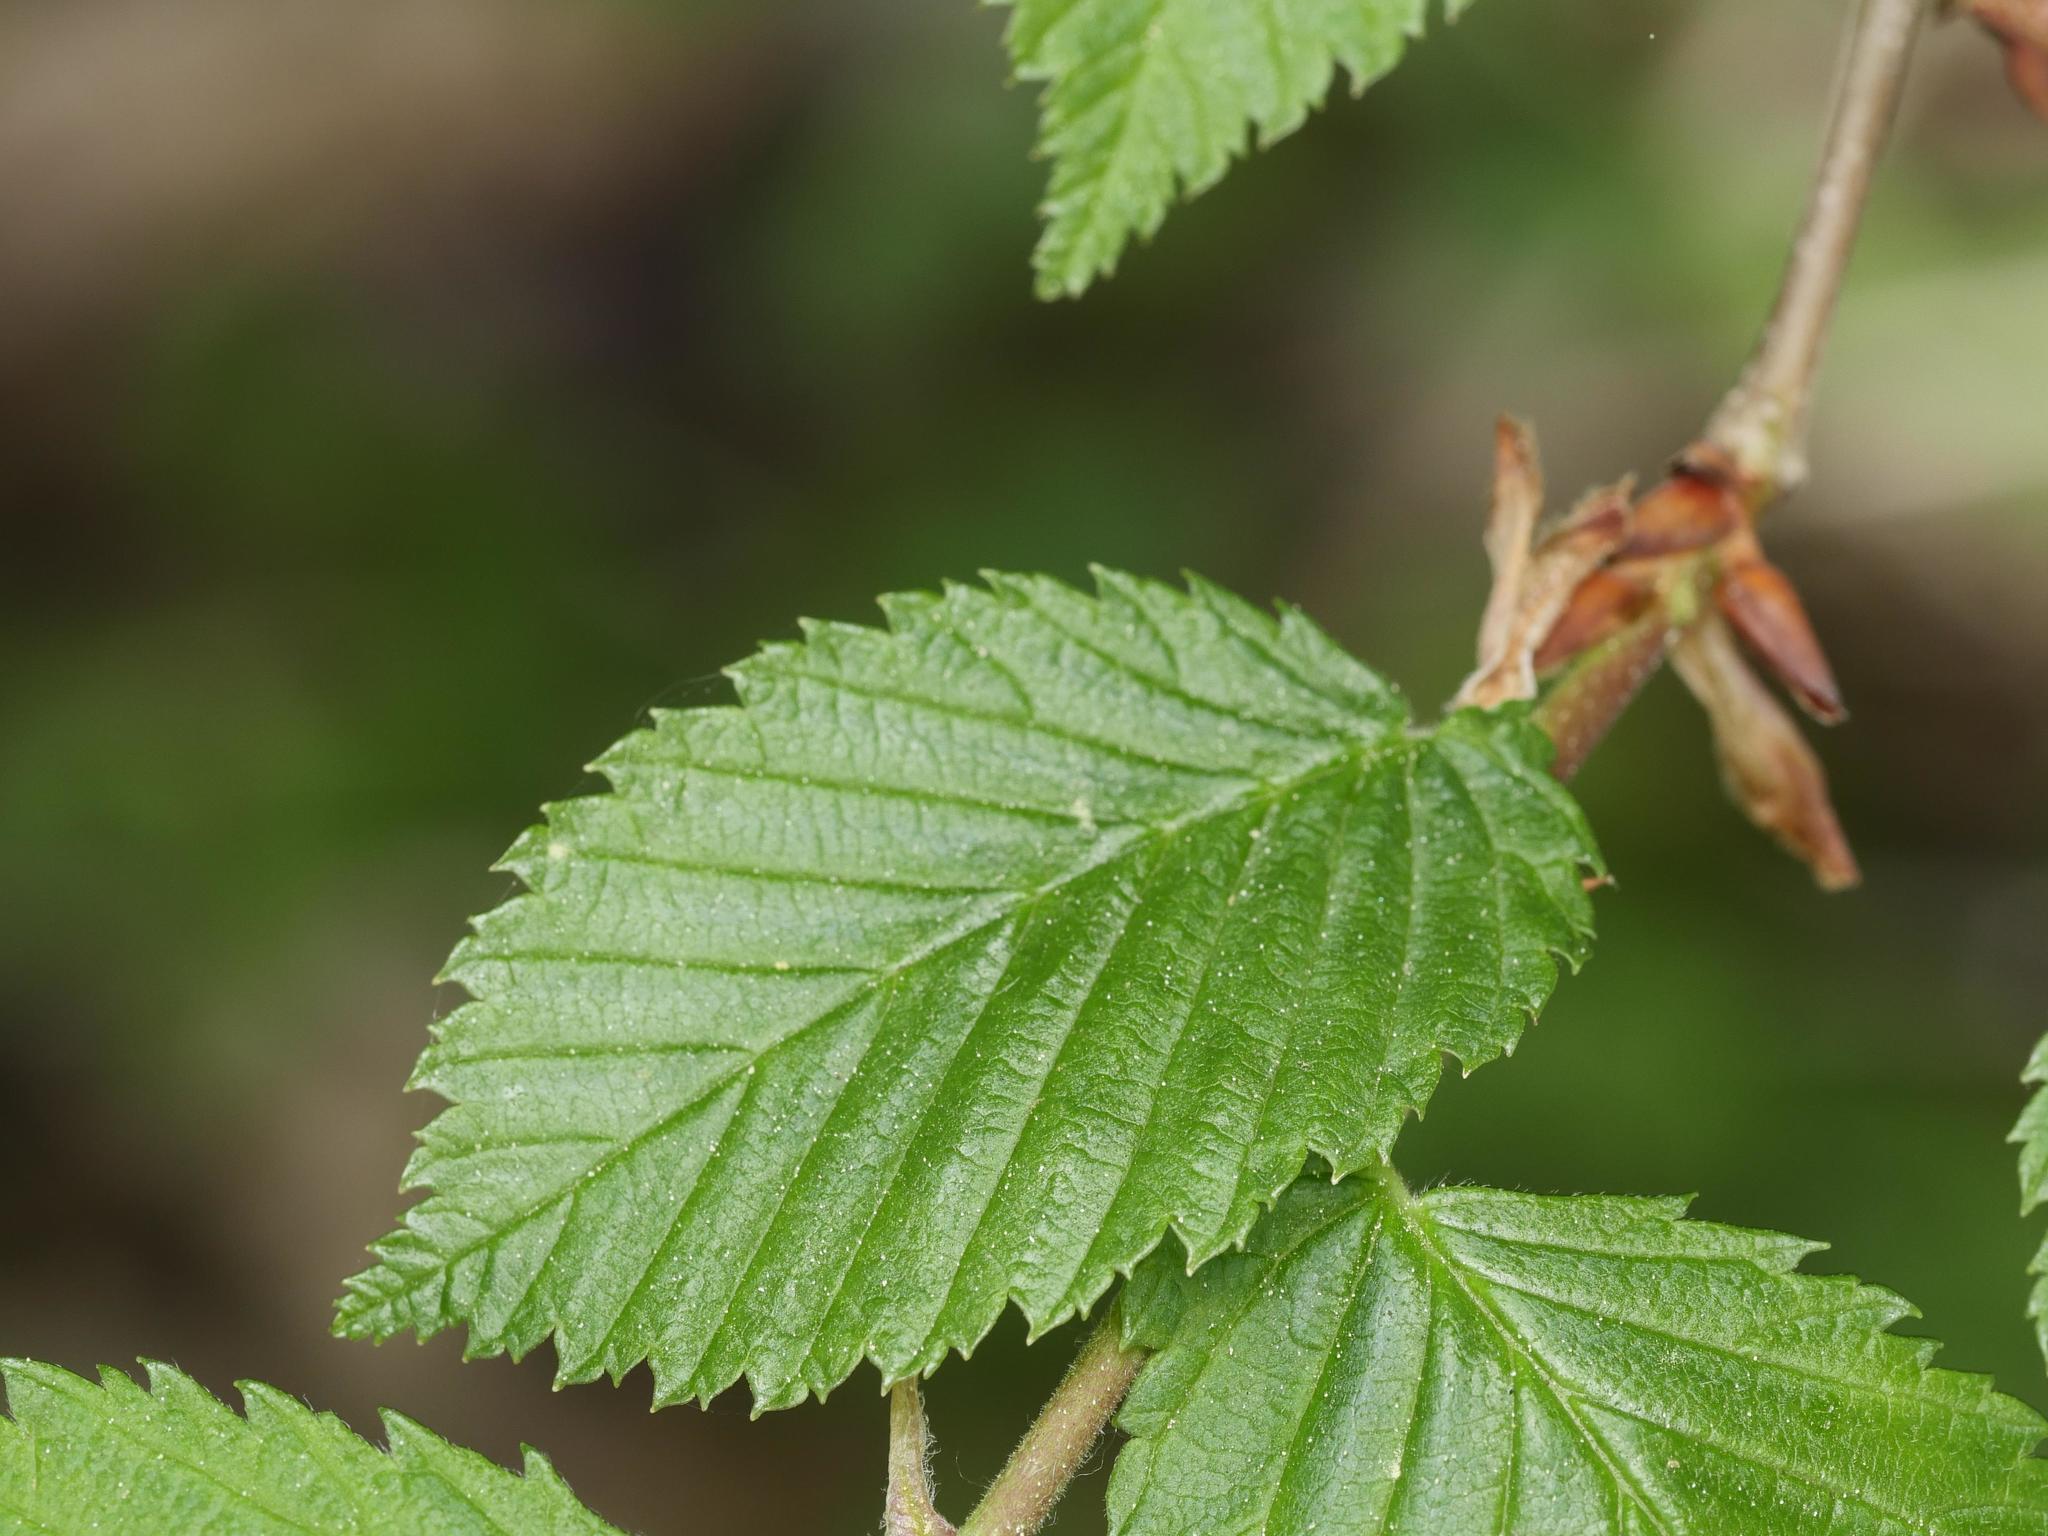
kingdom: Plantae
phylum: Tracheophyta
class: Magnoliopsida
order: Rosales
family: Ulmaceae
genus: Ulmus
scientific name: Ulmus glabra
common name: Wych elm
